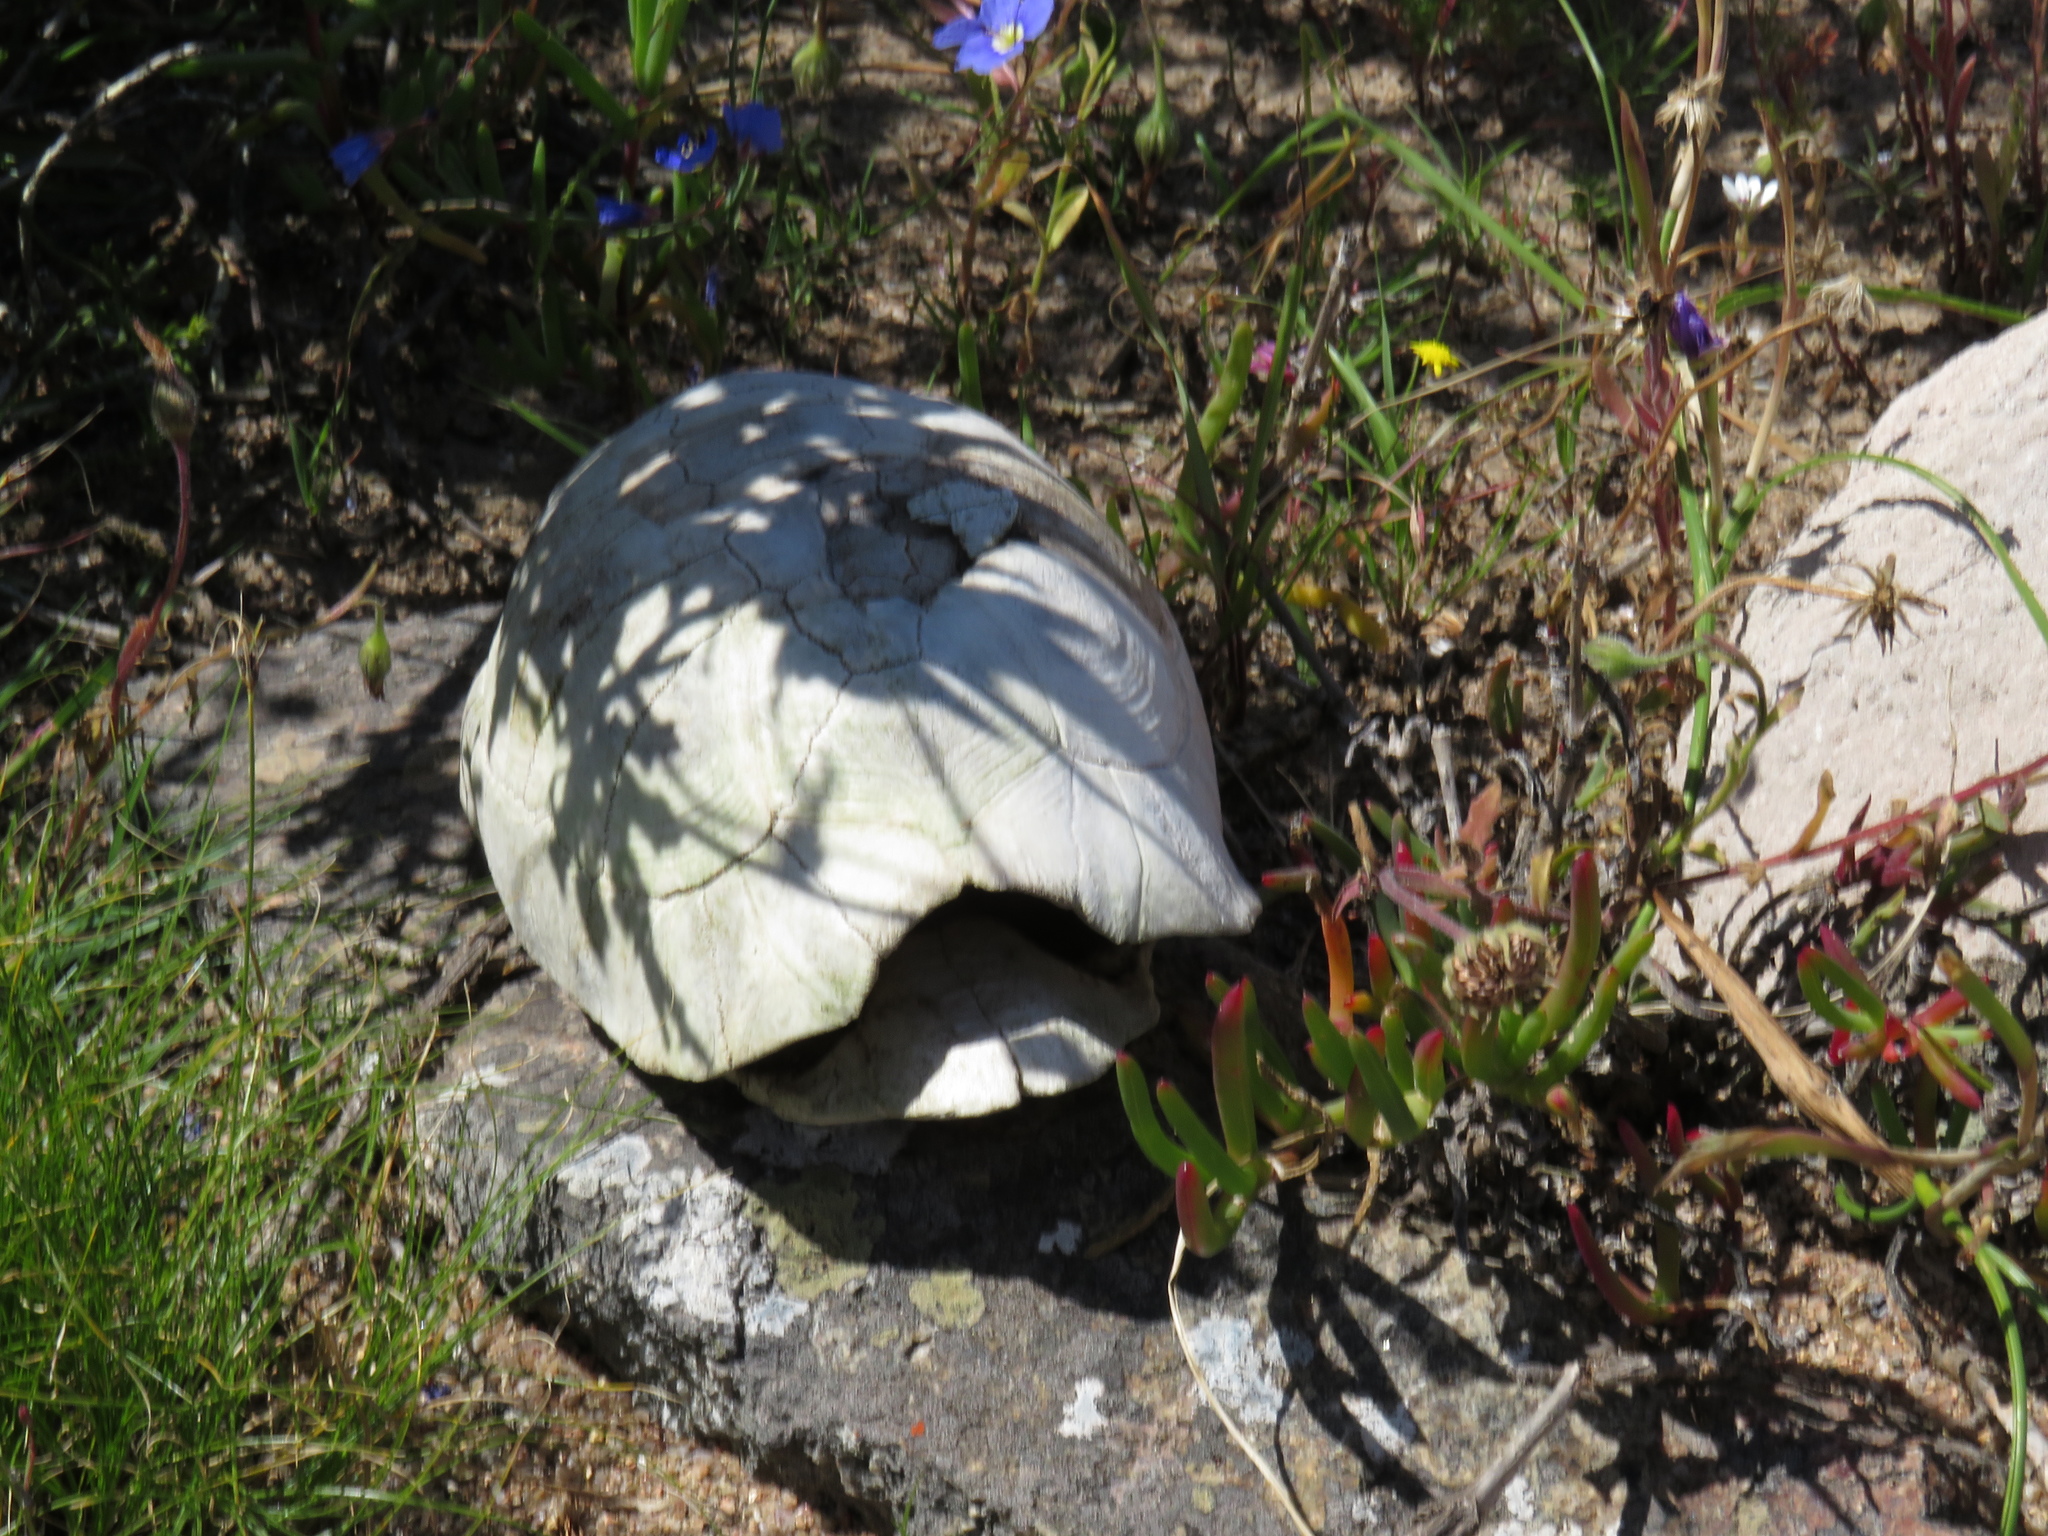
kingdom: Animalia
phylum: Chordata
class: Testudines
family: Testudinidae
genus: Chersina
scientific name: Chersina angulata
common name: South african bowsprit tortoise
